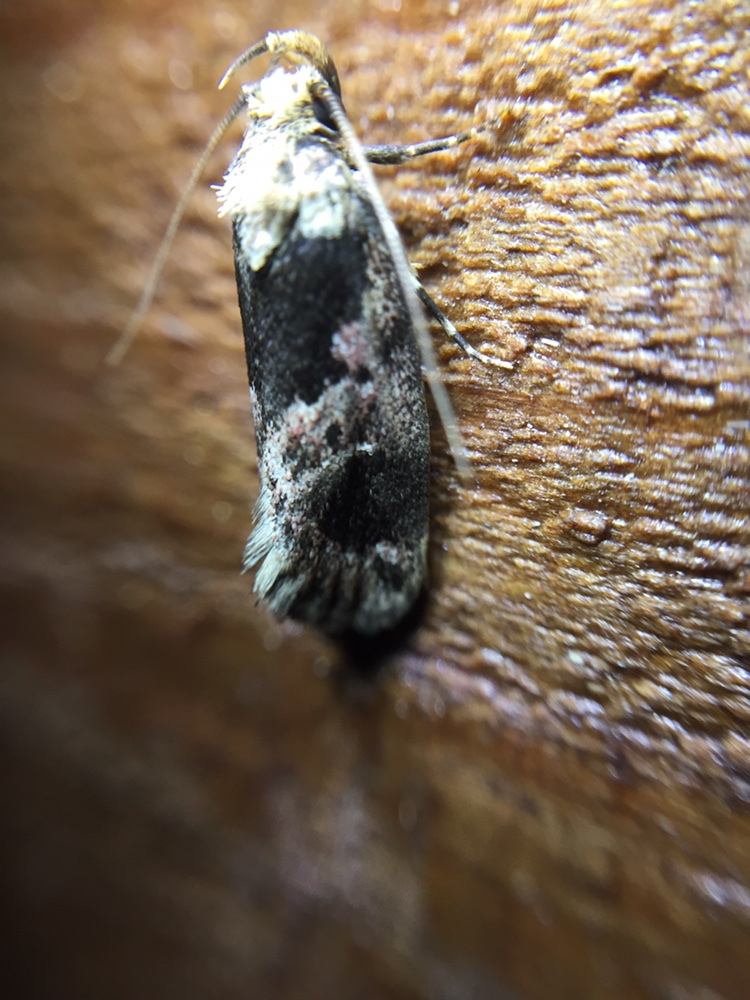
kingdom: Animalia
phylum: Arthropoda
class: Insecta
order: Lepidoptera
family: Oecophoridae
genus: Barea
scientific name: Barea consignatella
